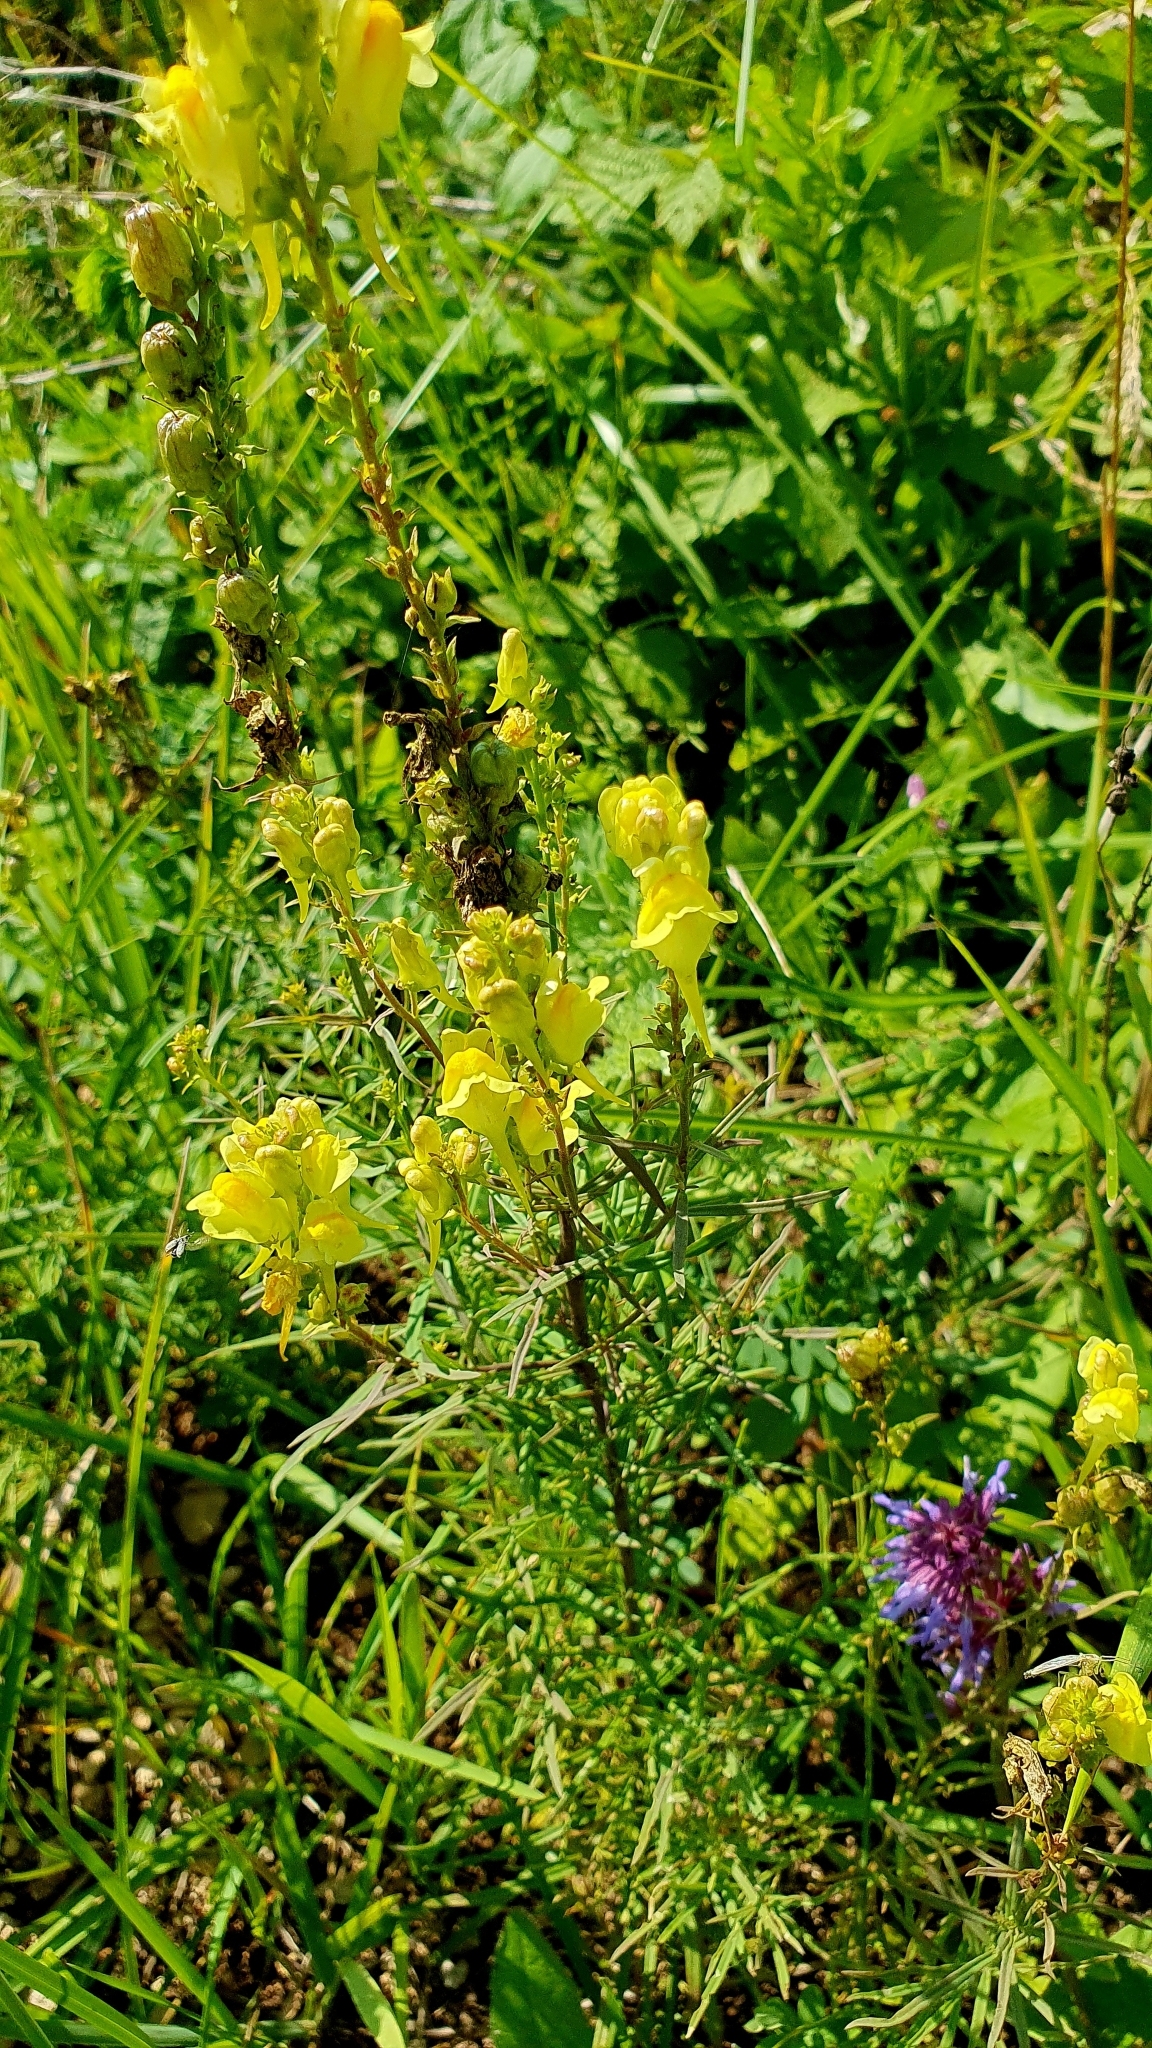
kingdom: Plantae
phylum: Tracheophyta
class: Magnoliopsida
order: Lamiales
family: Plantaginaceae
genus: Linaria
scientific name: Linaria vulgaris
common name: Butter and eggs
